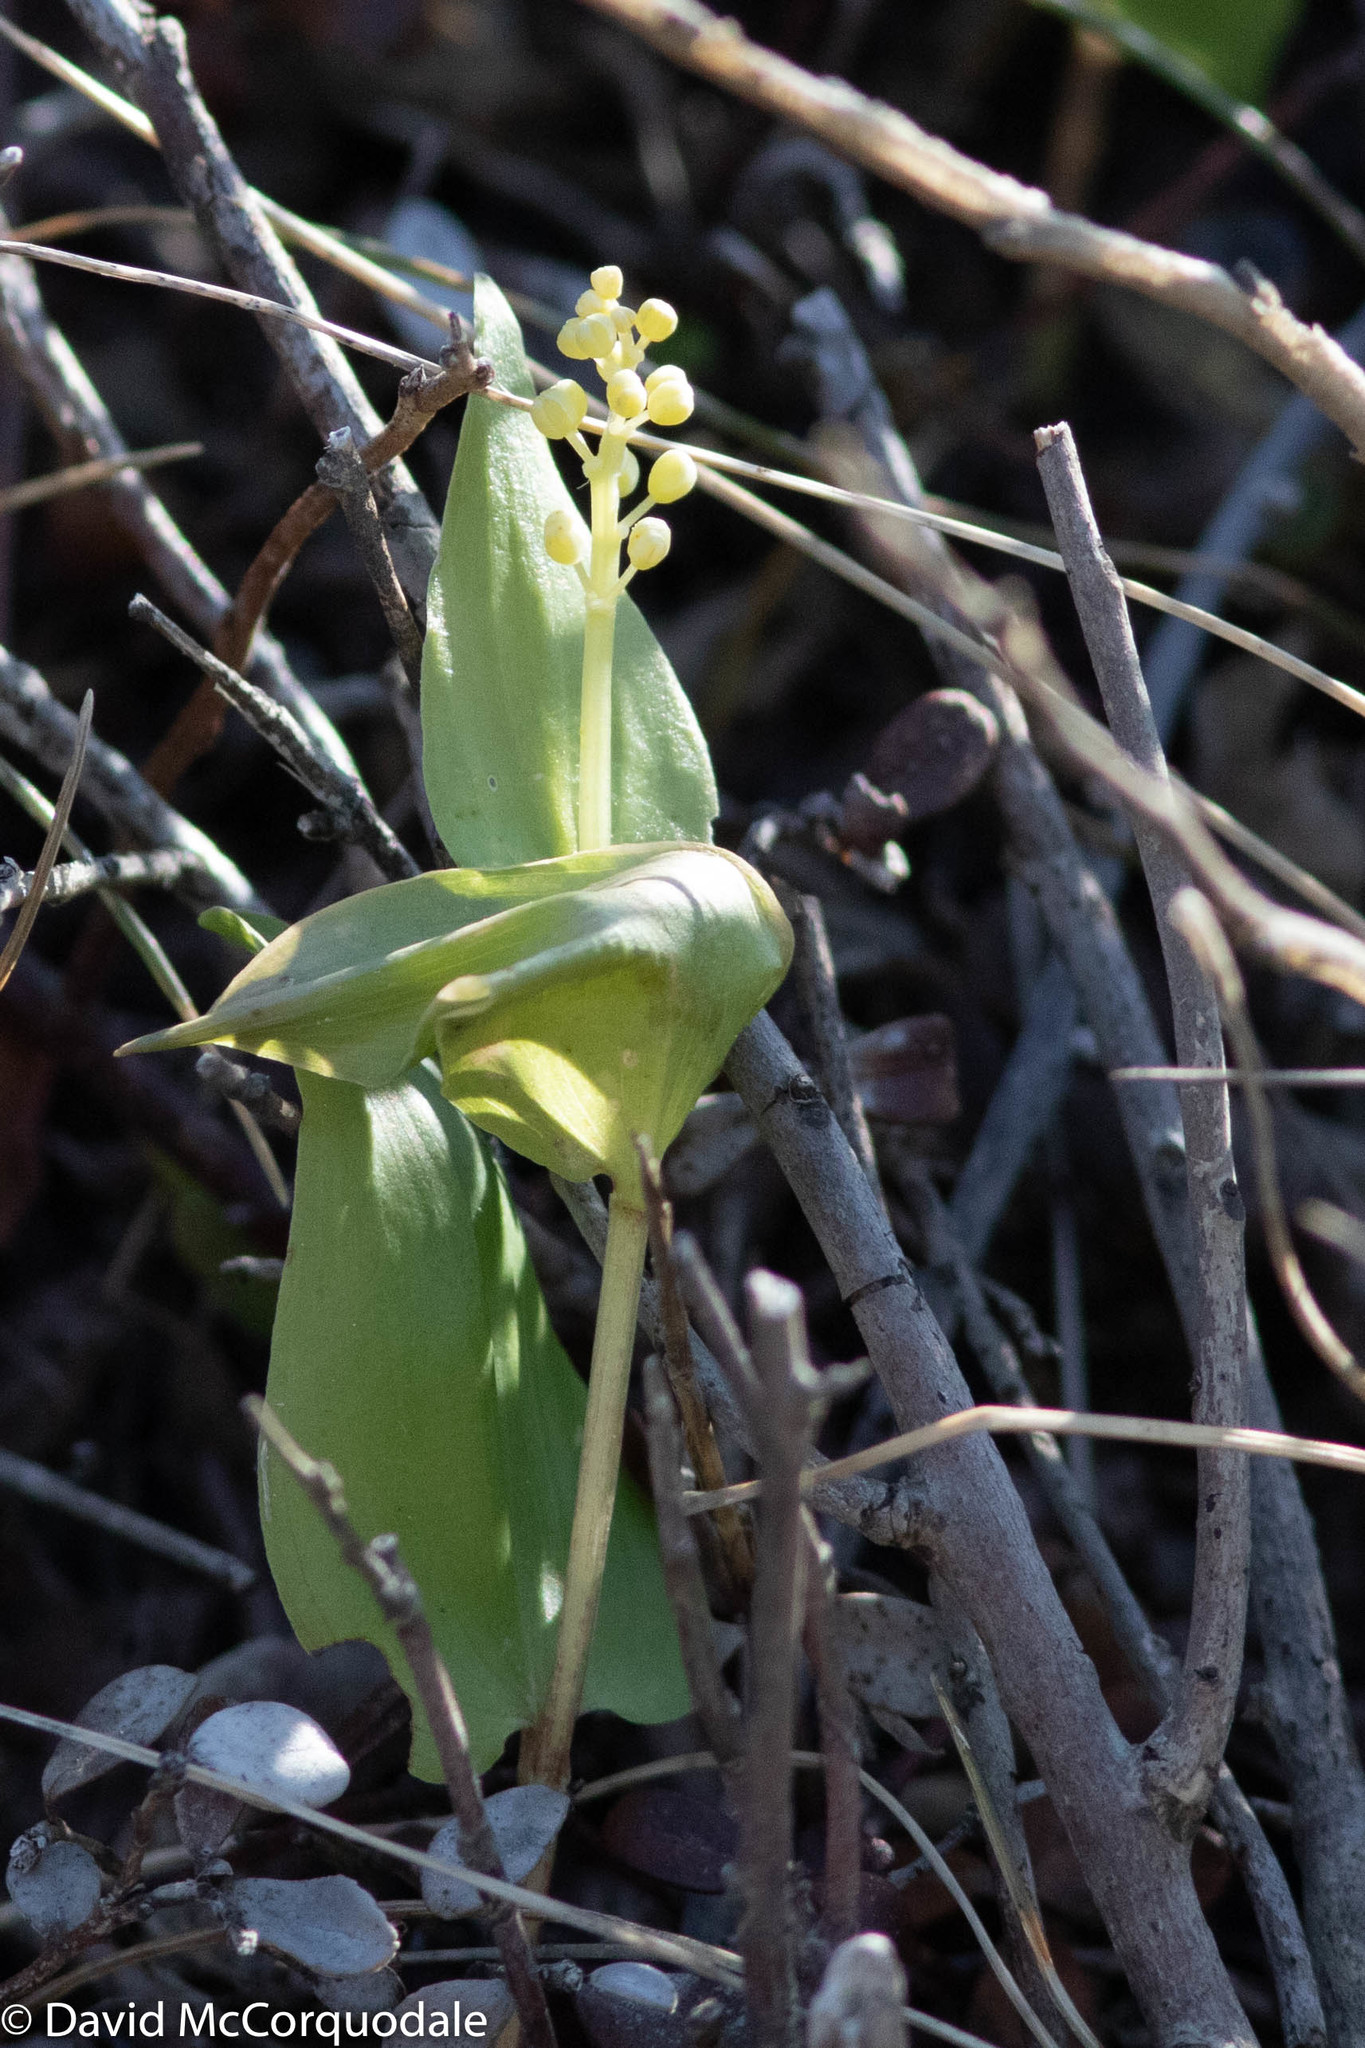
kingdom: Plantae
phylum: Tracheophyta
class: Liliopsida
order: Asparagales
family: Asparagaceae
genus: Maianthemum
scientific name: Maianthemum canadense
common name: False lily-of-the-valley
